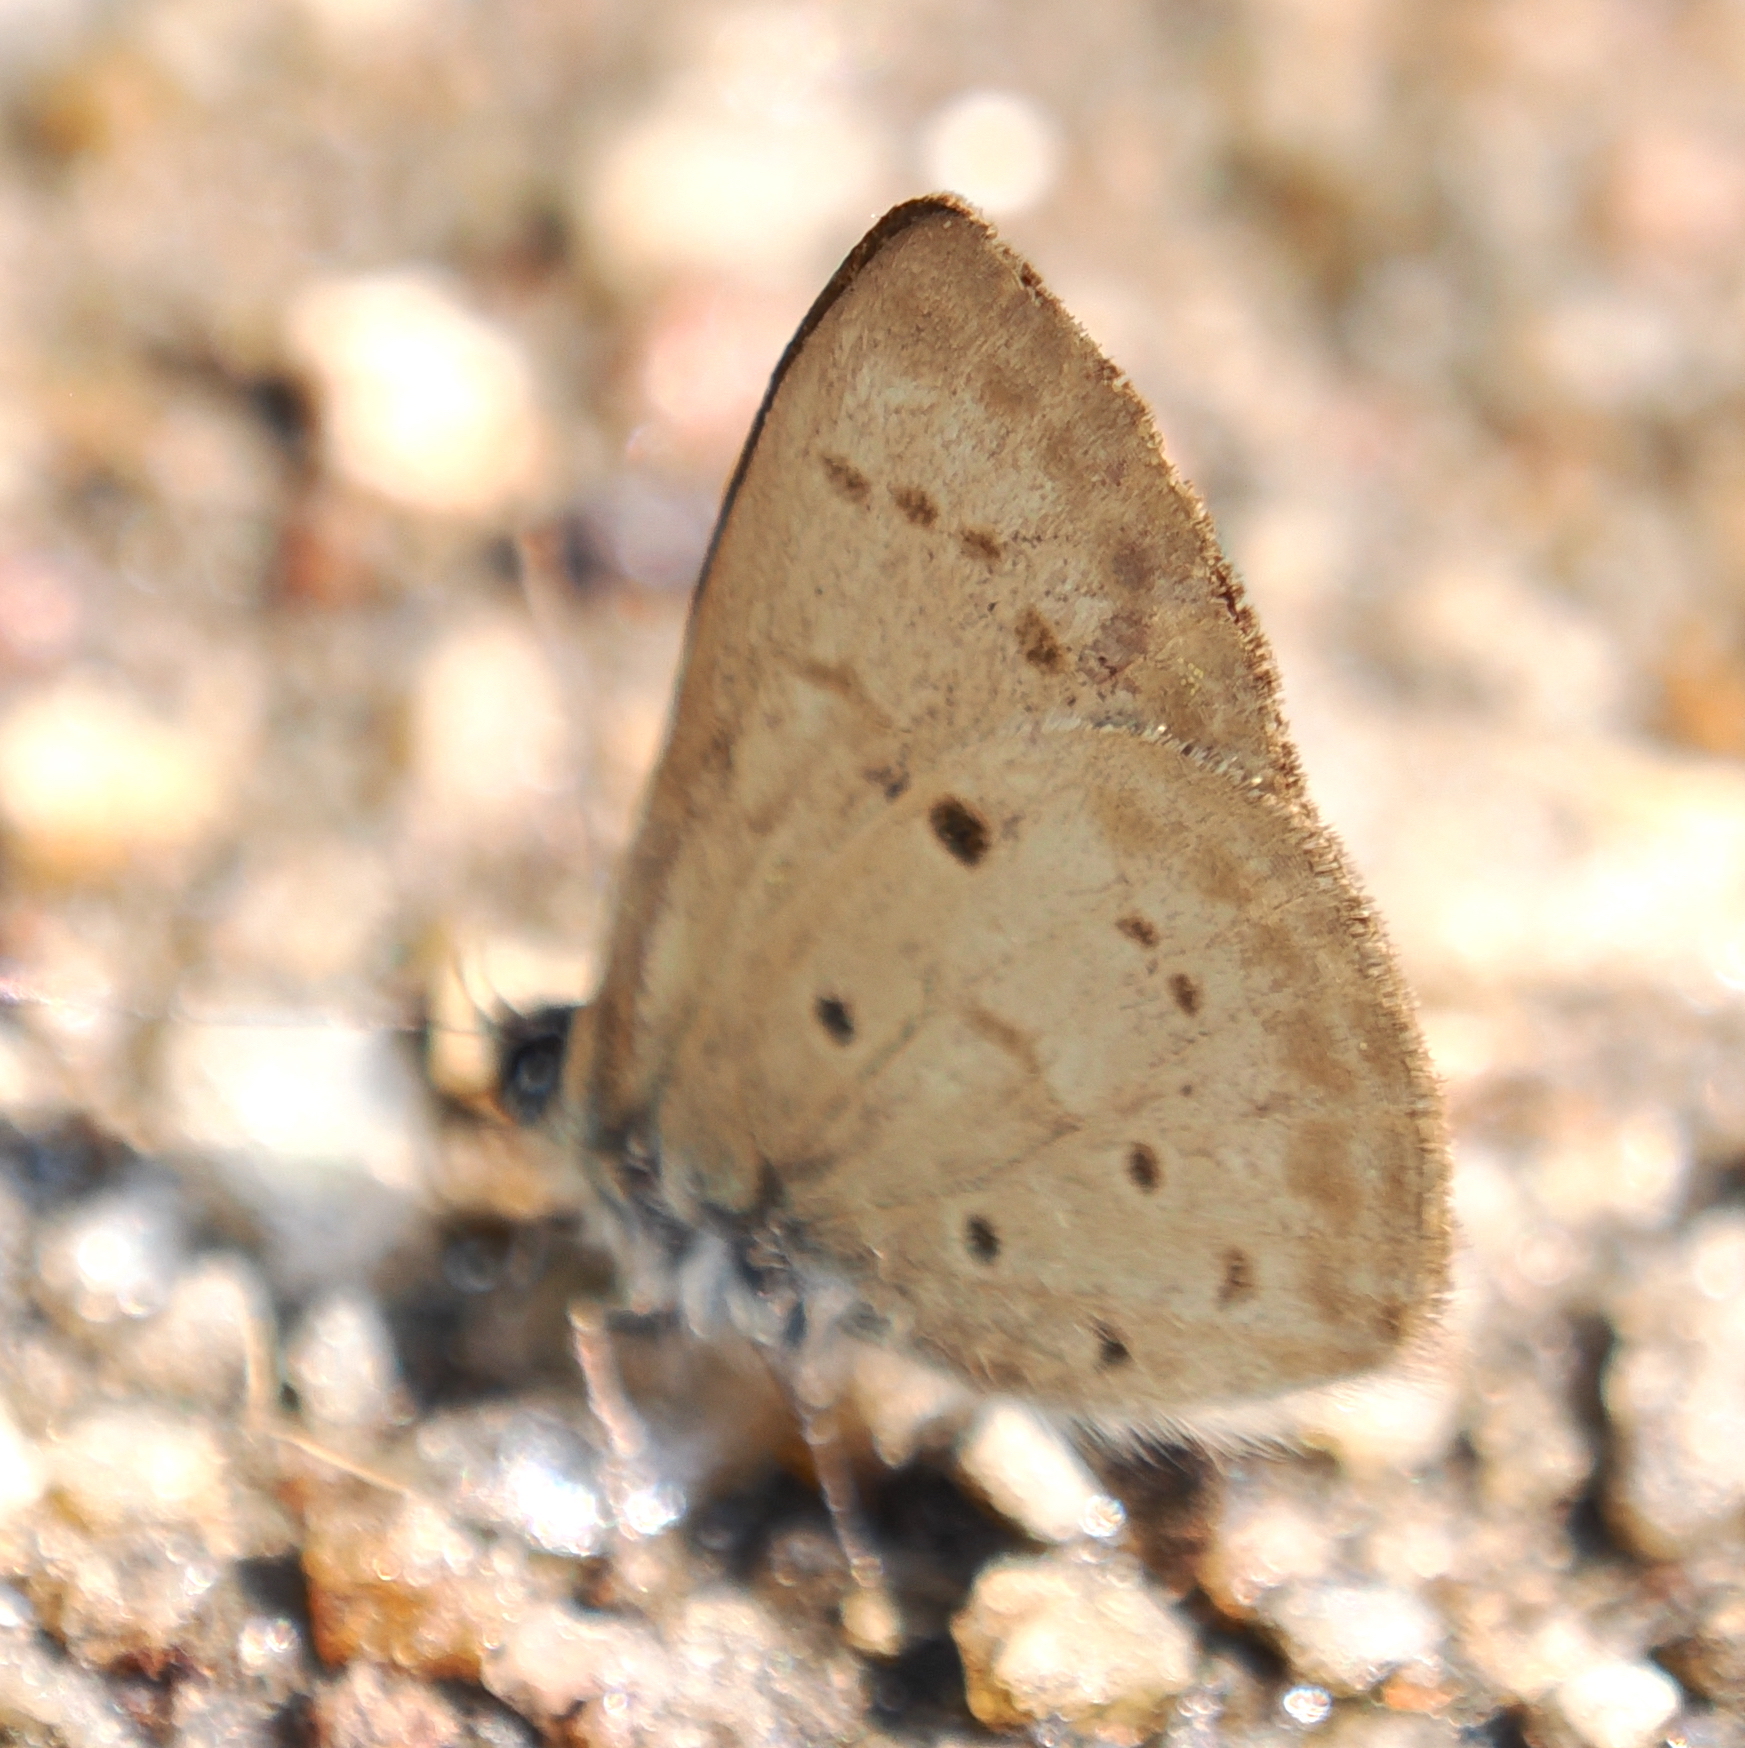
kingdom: Animalia
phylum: Arthropoda
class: Insecta
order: Lepidoptera
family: Lycaenidae
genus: Una
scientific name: Una usta
